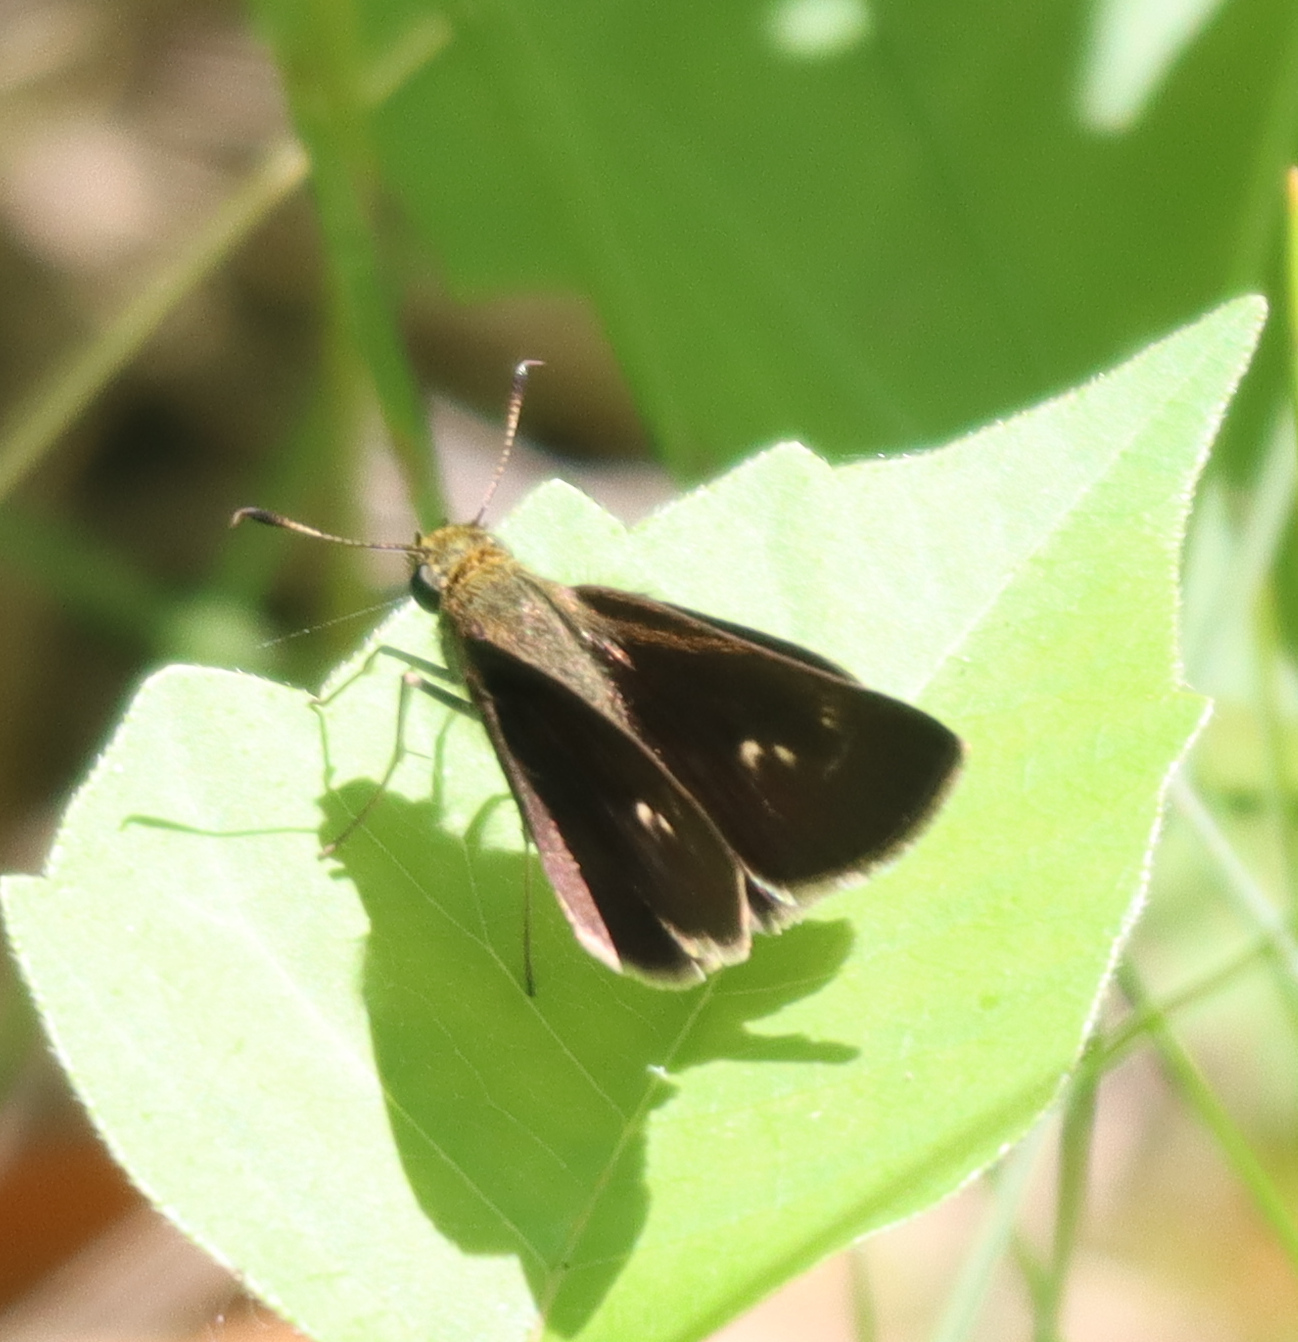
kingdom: Animalia
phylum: Arthropoda
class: Insecta
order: Lepidoptera
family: Hesperiidae
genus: Euphyes
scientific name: Euphyes vestris
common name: Dun skipper
